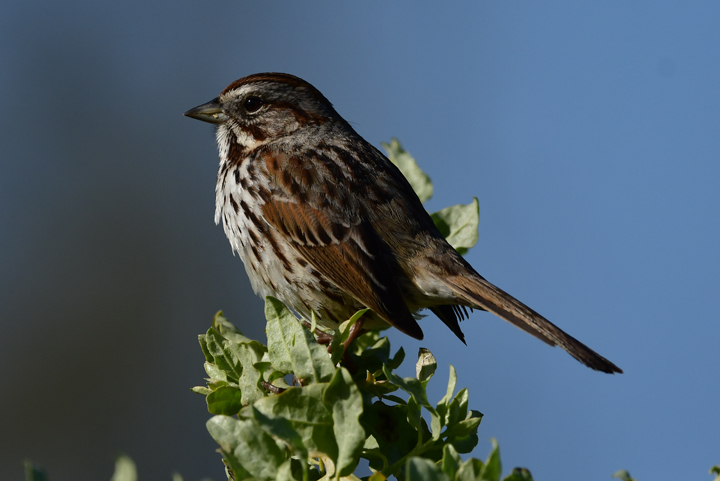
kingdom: Animalia
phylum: Chordata
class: Aves
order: Passeriformes
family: Passerellidae
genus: Melospiza
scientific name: Melospiza melodia
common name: Song sparrow
